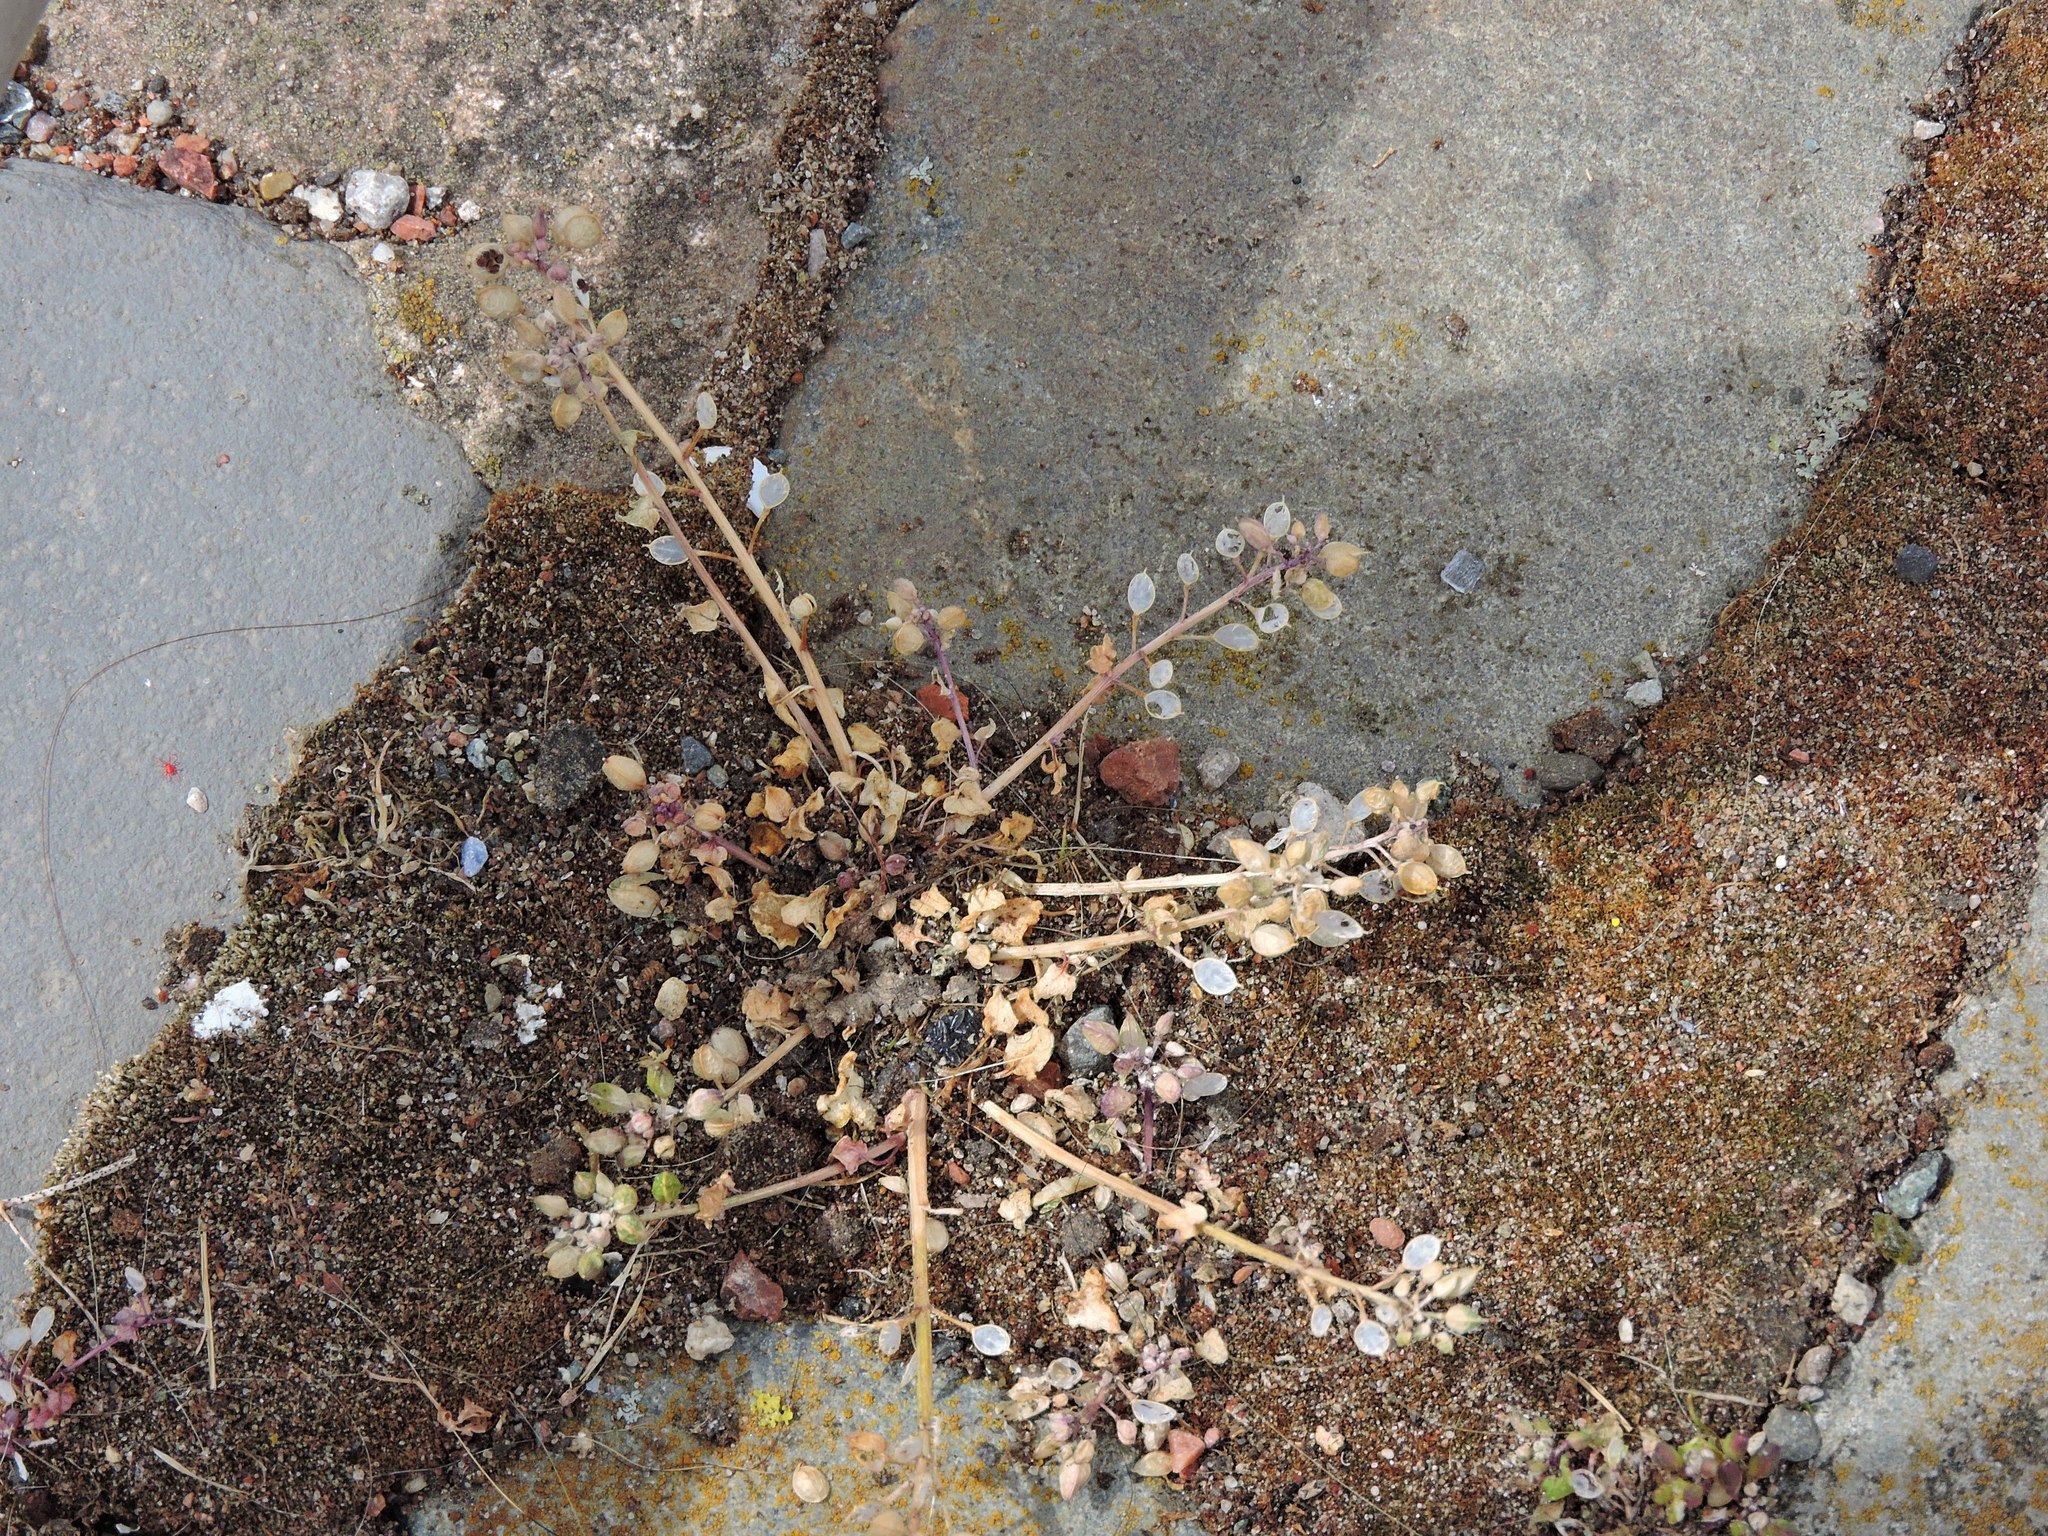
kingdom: Plantae
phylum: Tracheophyta
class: Magnoliopsida
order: Brassicales
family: Brassicaceae
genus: Cochlearia
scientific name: Cochlearia danica
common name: Early scurvygrass
